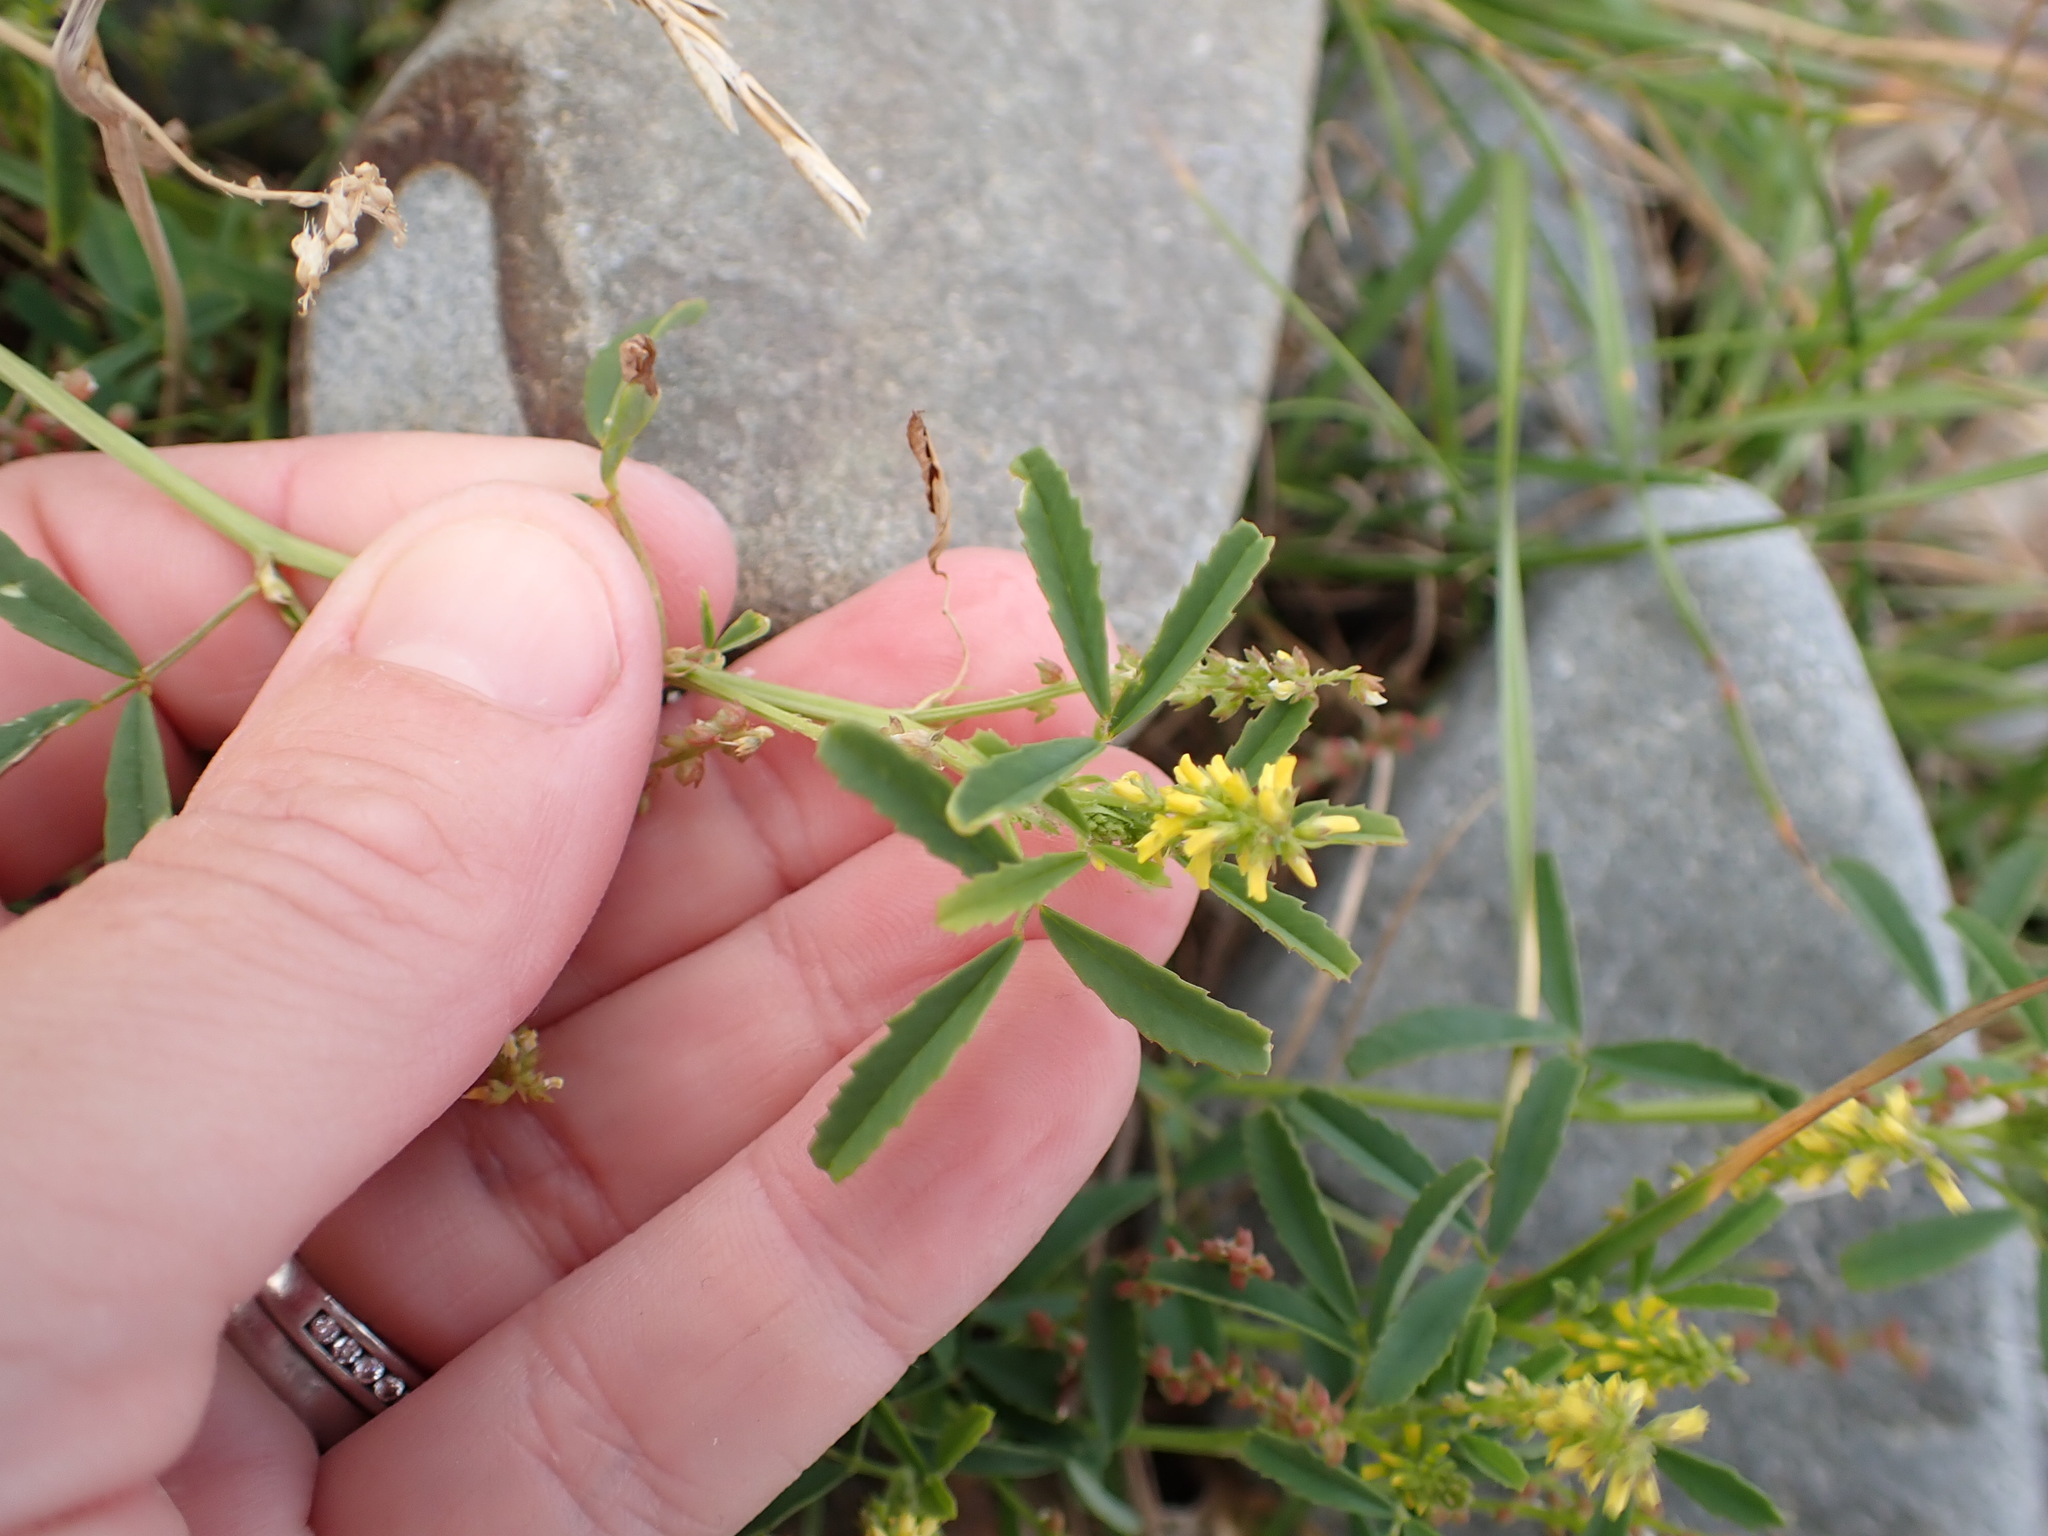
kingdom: Plantae
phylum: Tracheophyta
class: Magnoliopsida
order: Fabales
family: Fabaceae
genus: Melilotus
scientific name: Melilotus indicus
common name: Small melilot
